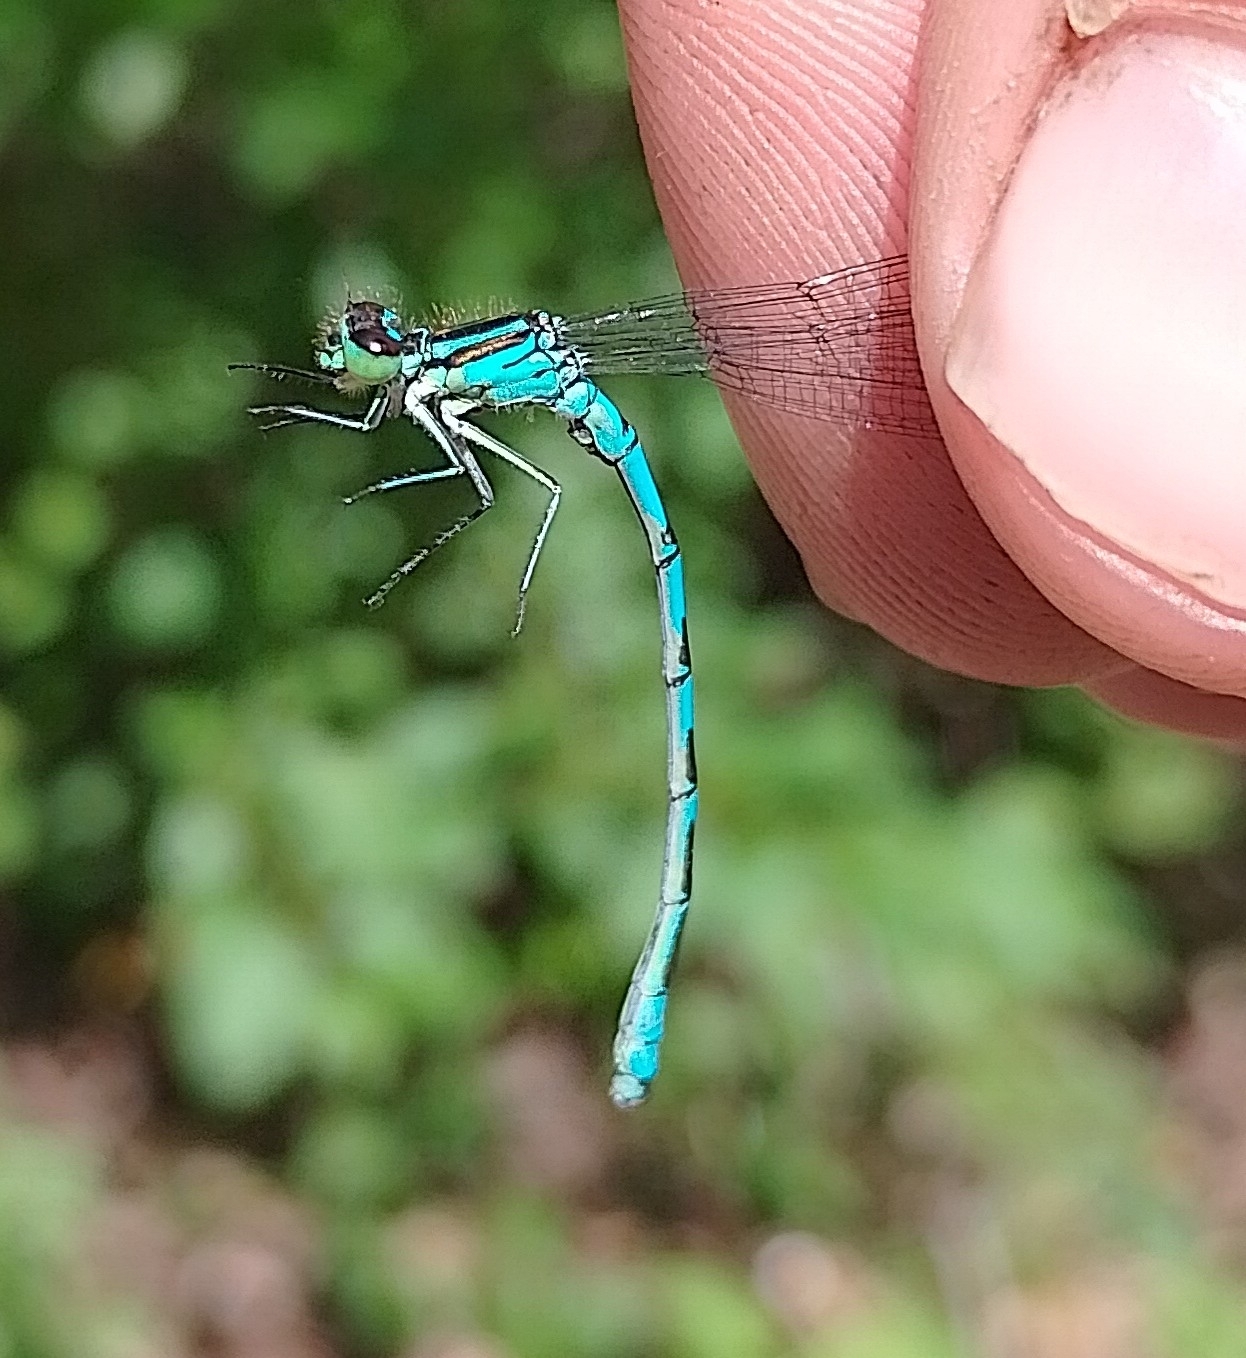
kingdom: Animalia
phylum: Arthropoda
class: Insecta
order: Odonata
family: Coenagrionidae
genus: Coenagrion
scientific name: Coenagrion hastulatum
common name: Spearhead bluet
